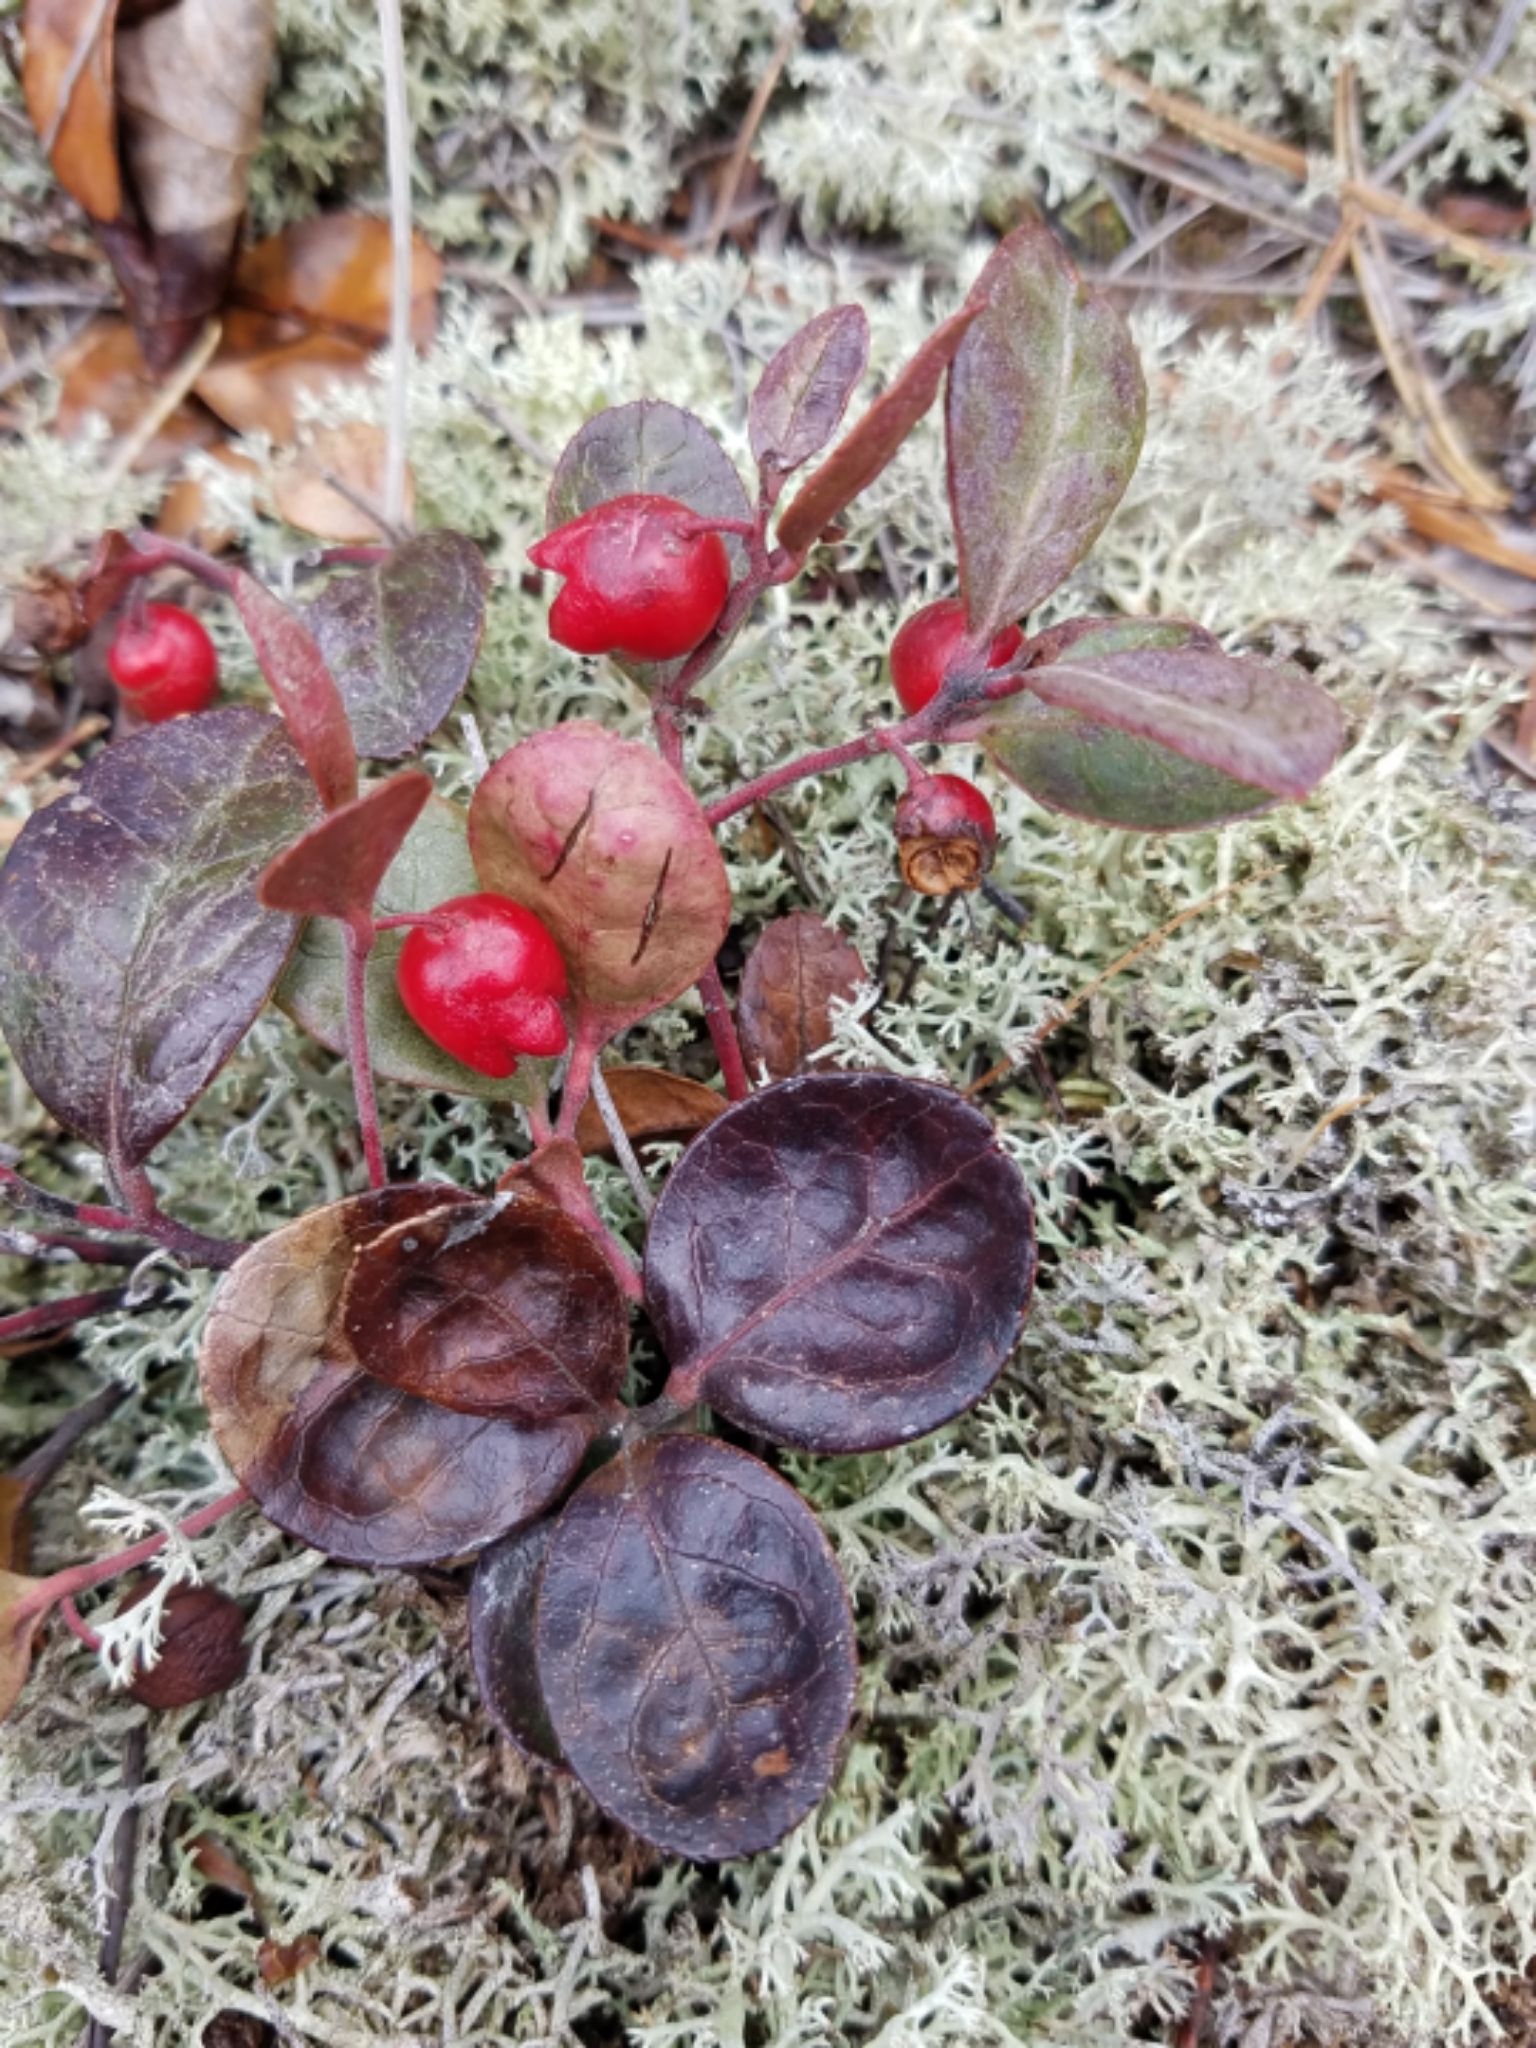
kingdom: Plantae
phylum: Tracheophyta
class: Magnoliopsida
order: Ericales
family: Ericaceae
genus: Gaultheria
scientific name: Gaultheria procumbens
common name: Checkerberry
